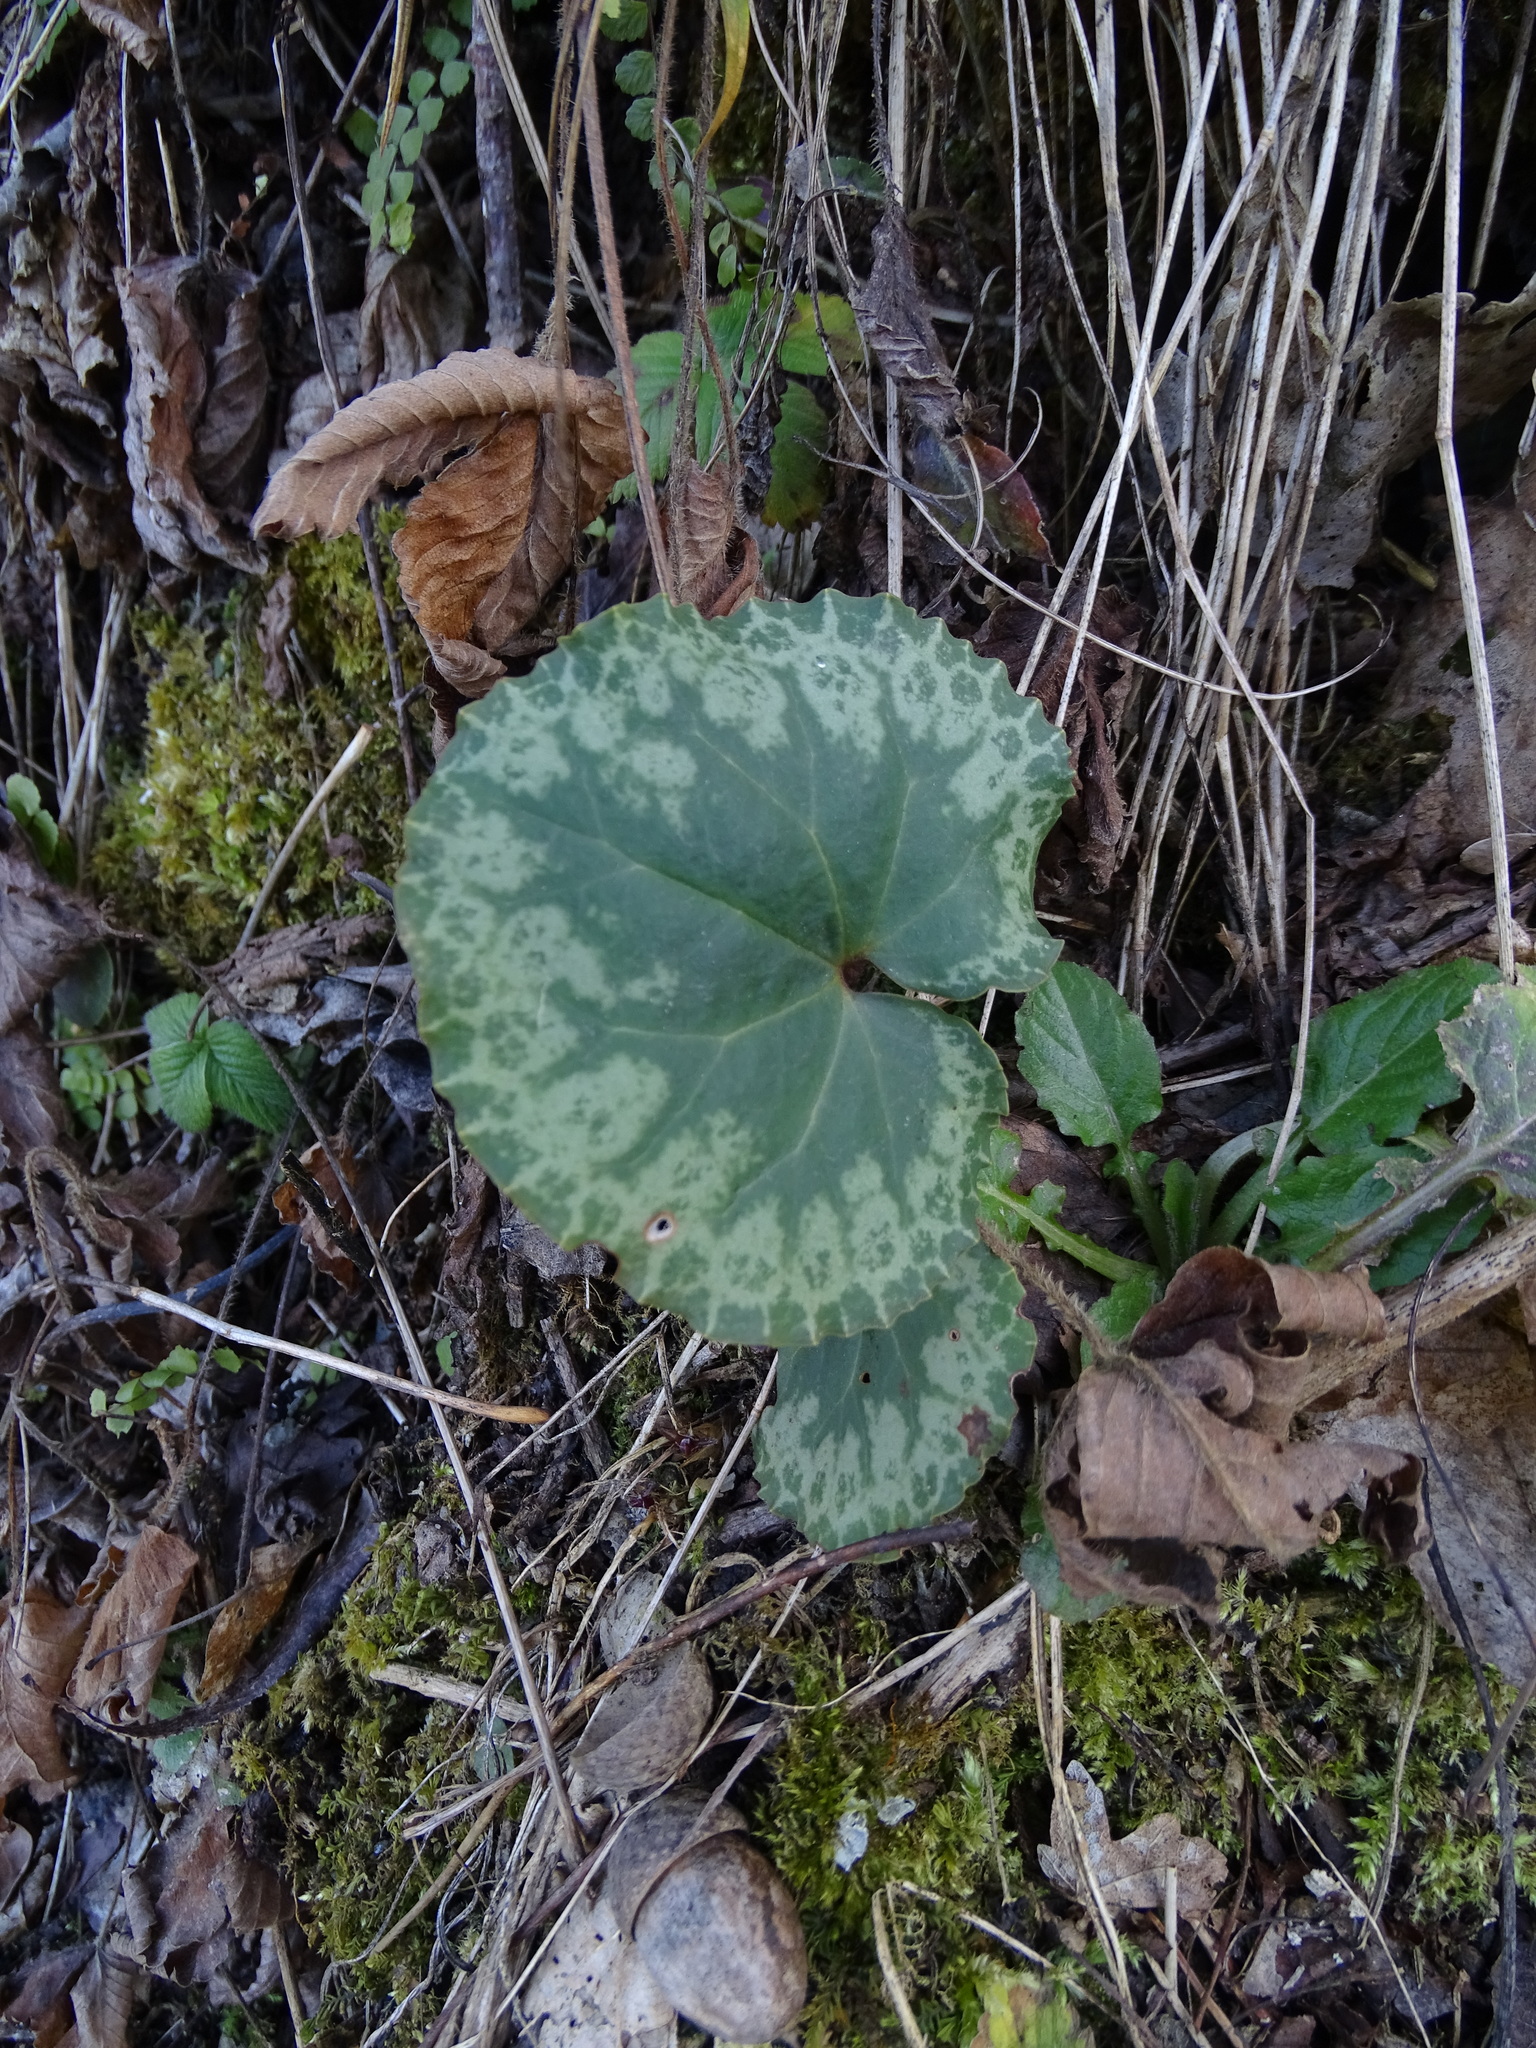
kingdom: Plantae
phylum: Tracheophyta
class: Magnoliopsida
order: Ericales
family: Primulaceae
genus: Cyclamen
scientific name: Cyclamen purpurascens
